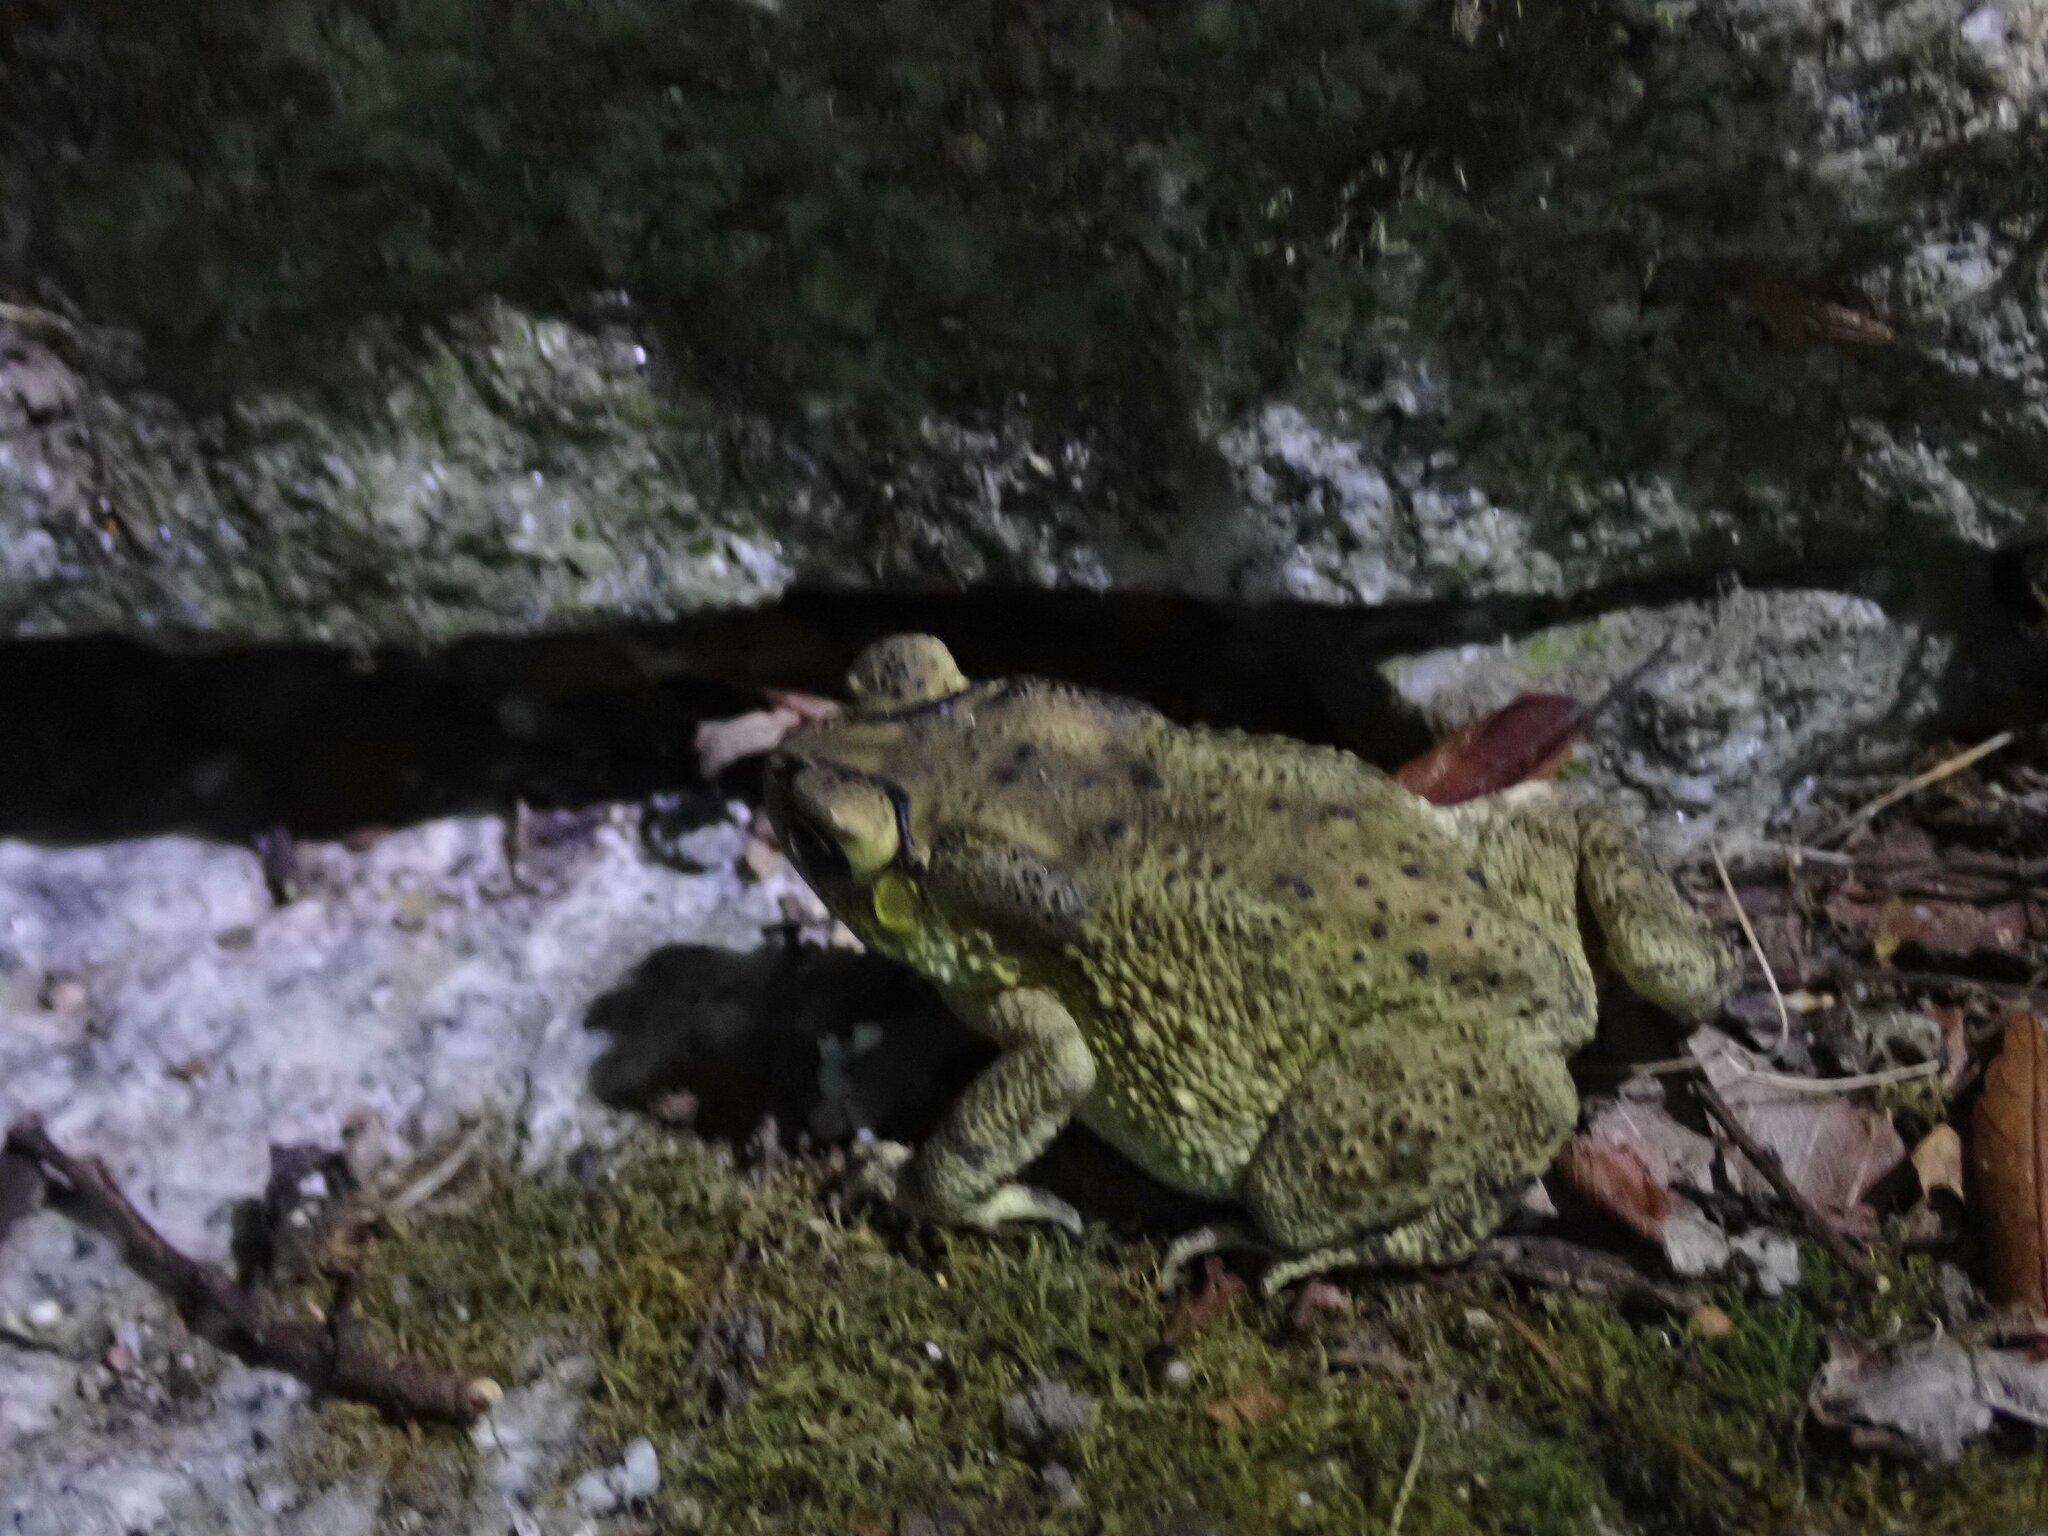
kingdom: Animalia
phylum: Chordata
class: Amphibia
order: Anura
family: Bufonidae
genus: Duttaphrynus
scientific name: Duttaphrynus melanostictus
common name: Common sunda toad
